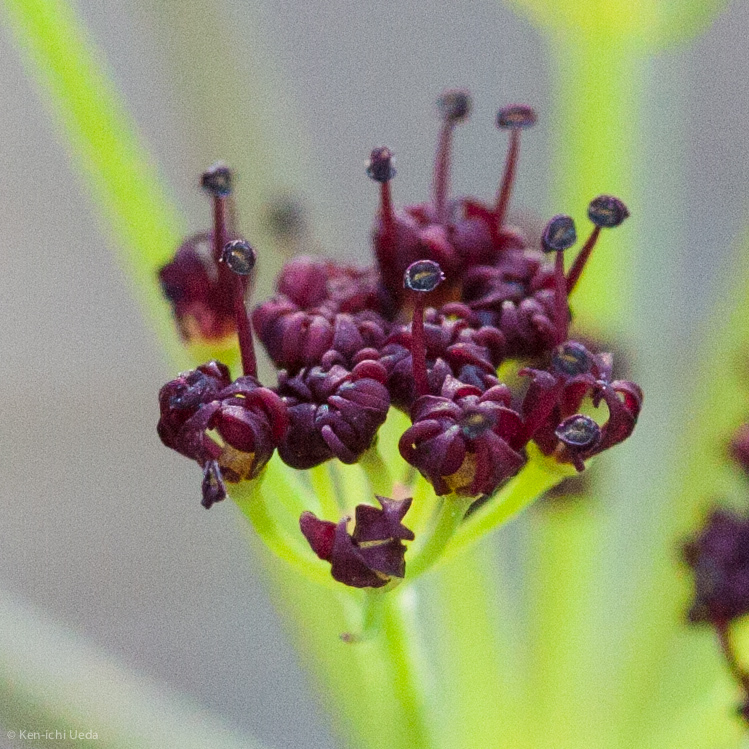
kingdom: Plantae
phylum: Tracheophyta
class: Magnoliopsida
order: Apiales
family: Apiaceae
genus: Lomatium
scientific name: Lomatium marginatum
